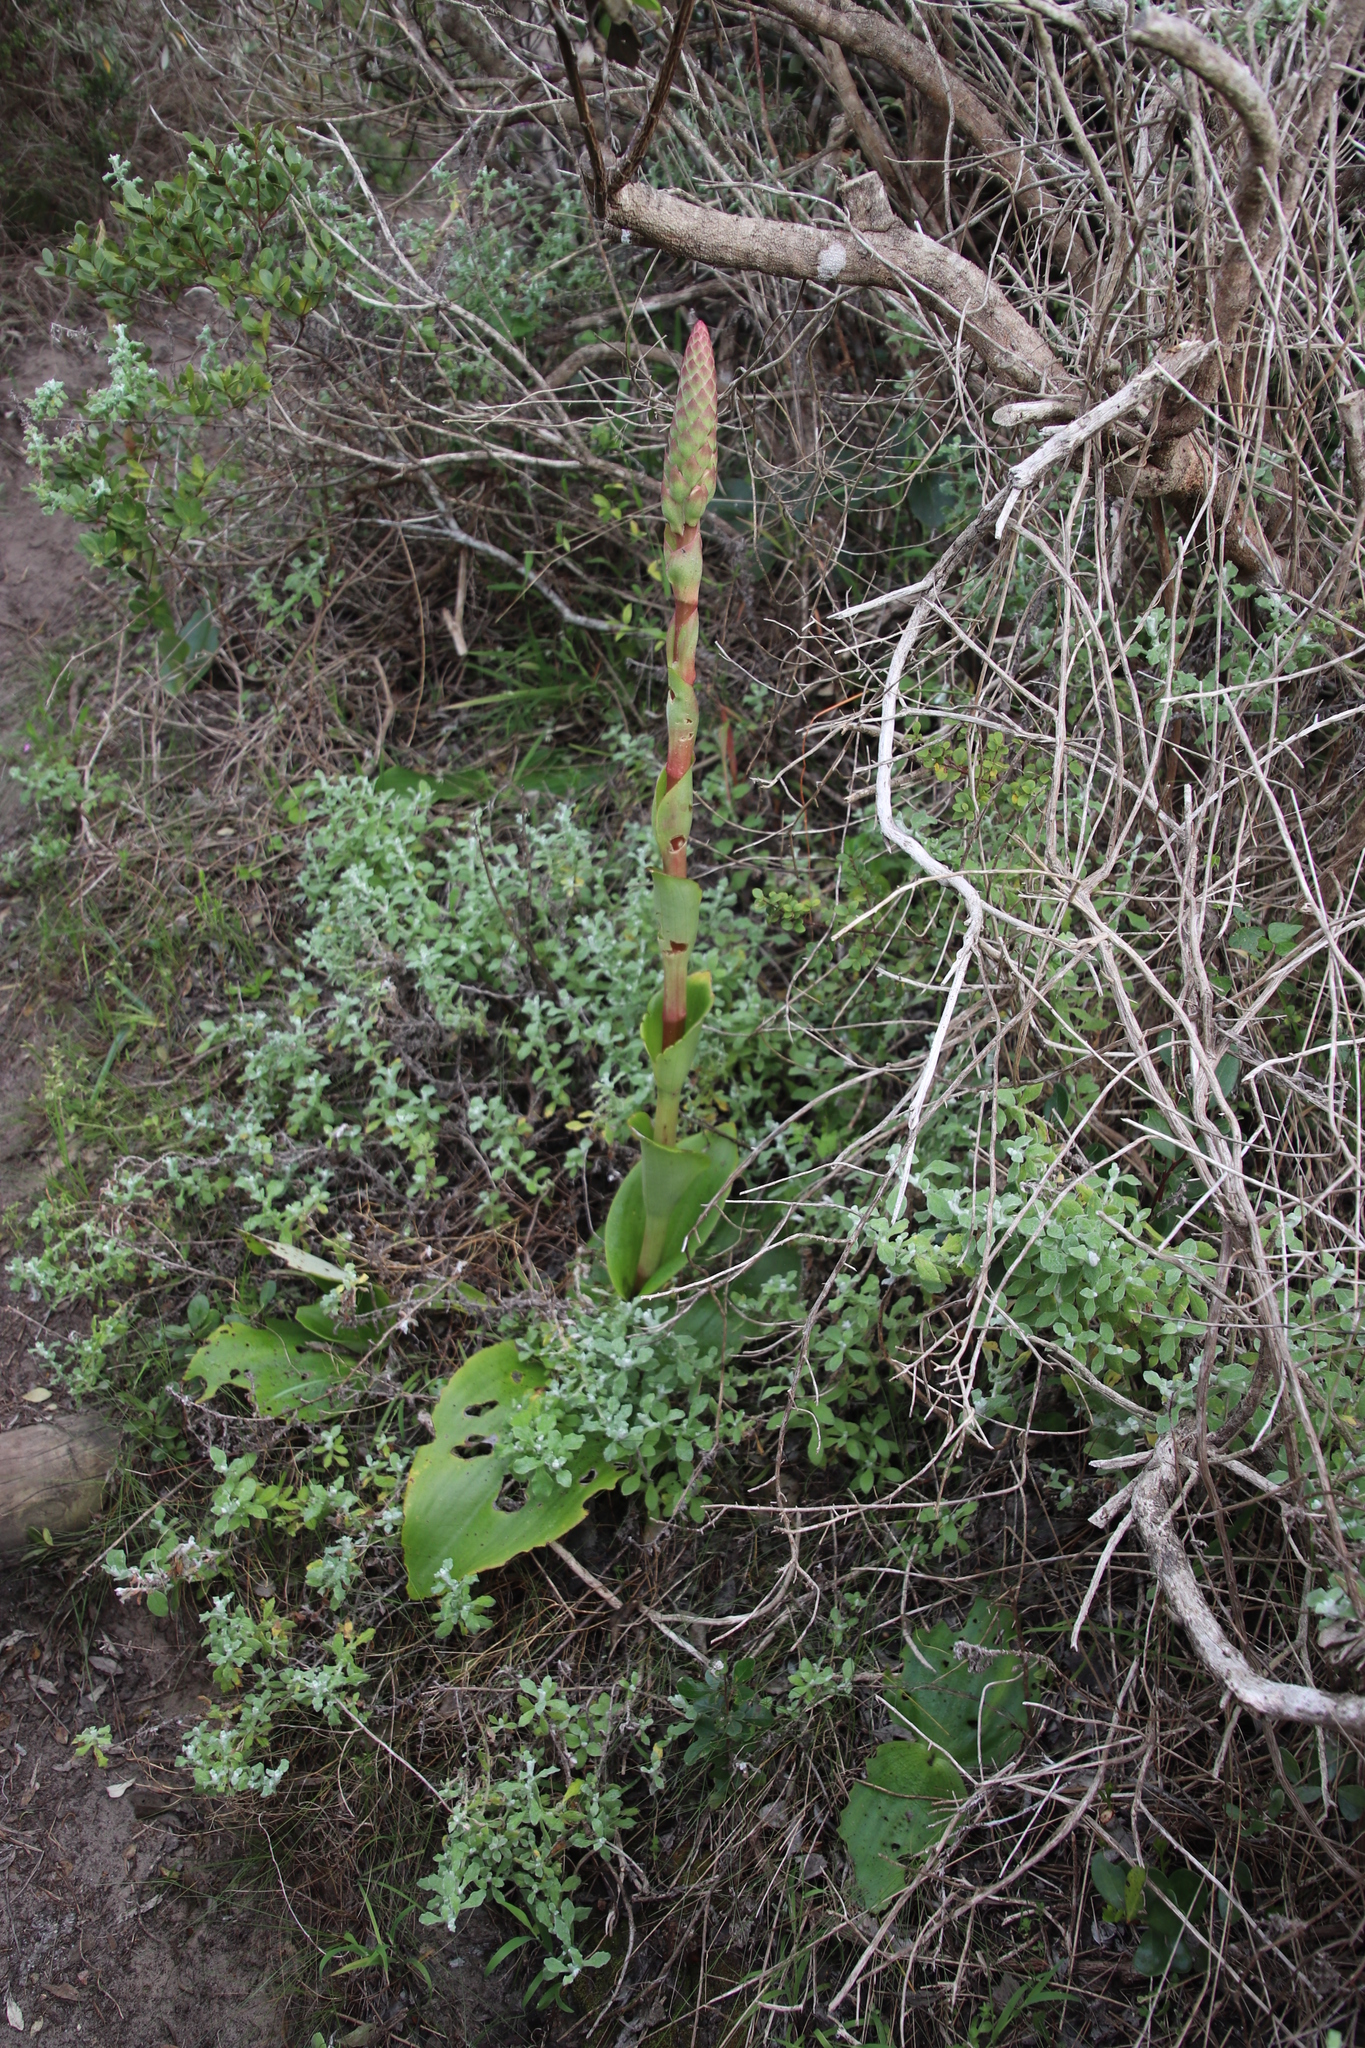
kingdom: Plantae
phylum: Tracheophyta
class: Liliopsida
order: Asparagales
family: Orchidaceae
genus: Satyrium
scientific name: Satyrium carneum
